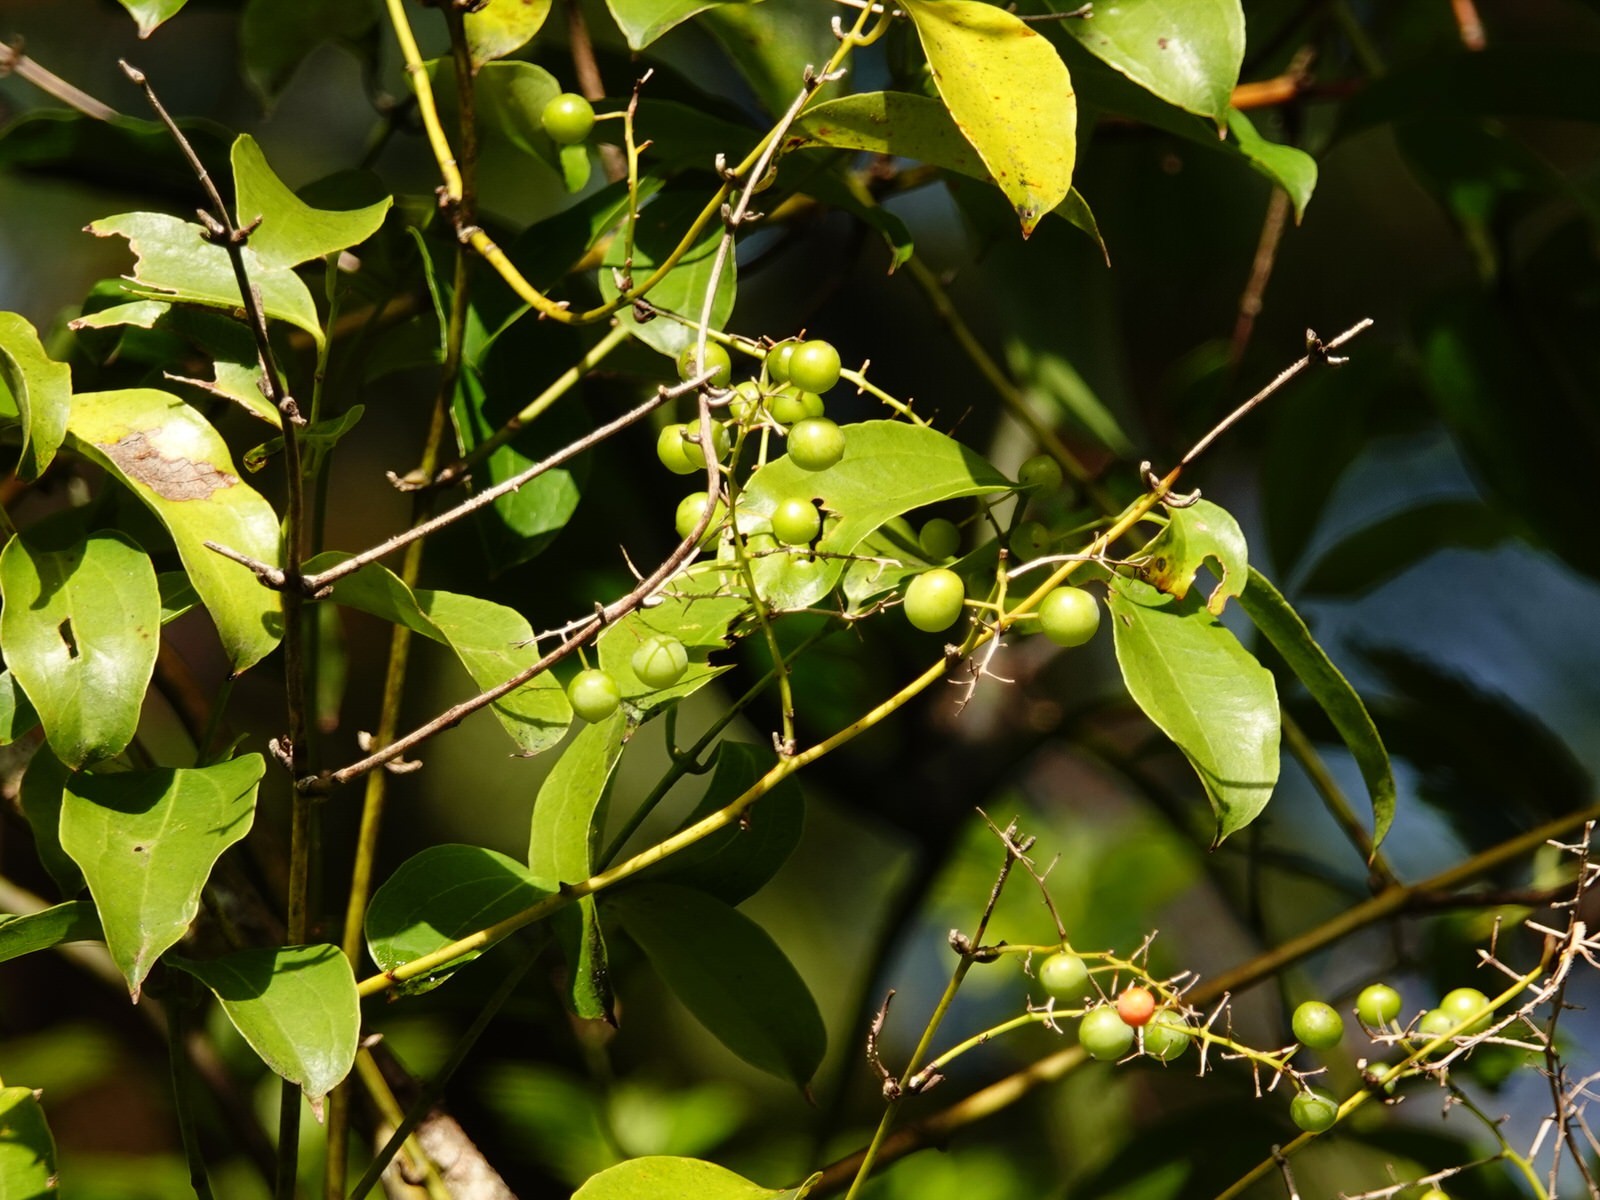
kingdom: Plantae
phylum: Tracheophyta
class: Liliopsida
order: Liliales
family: Ripogonaceae
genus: Ripogonum
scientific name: Ripogonum scandens
